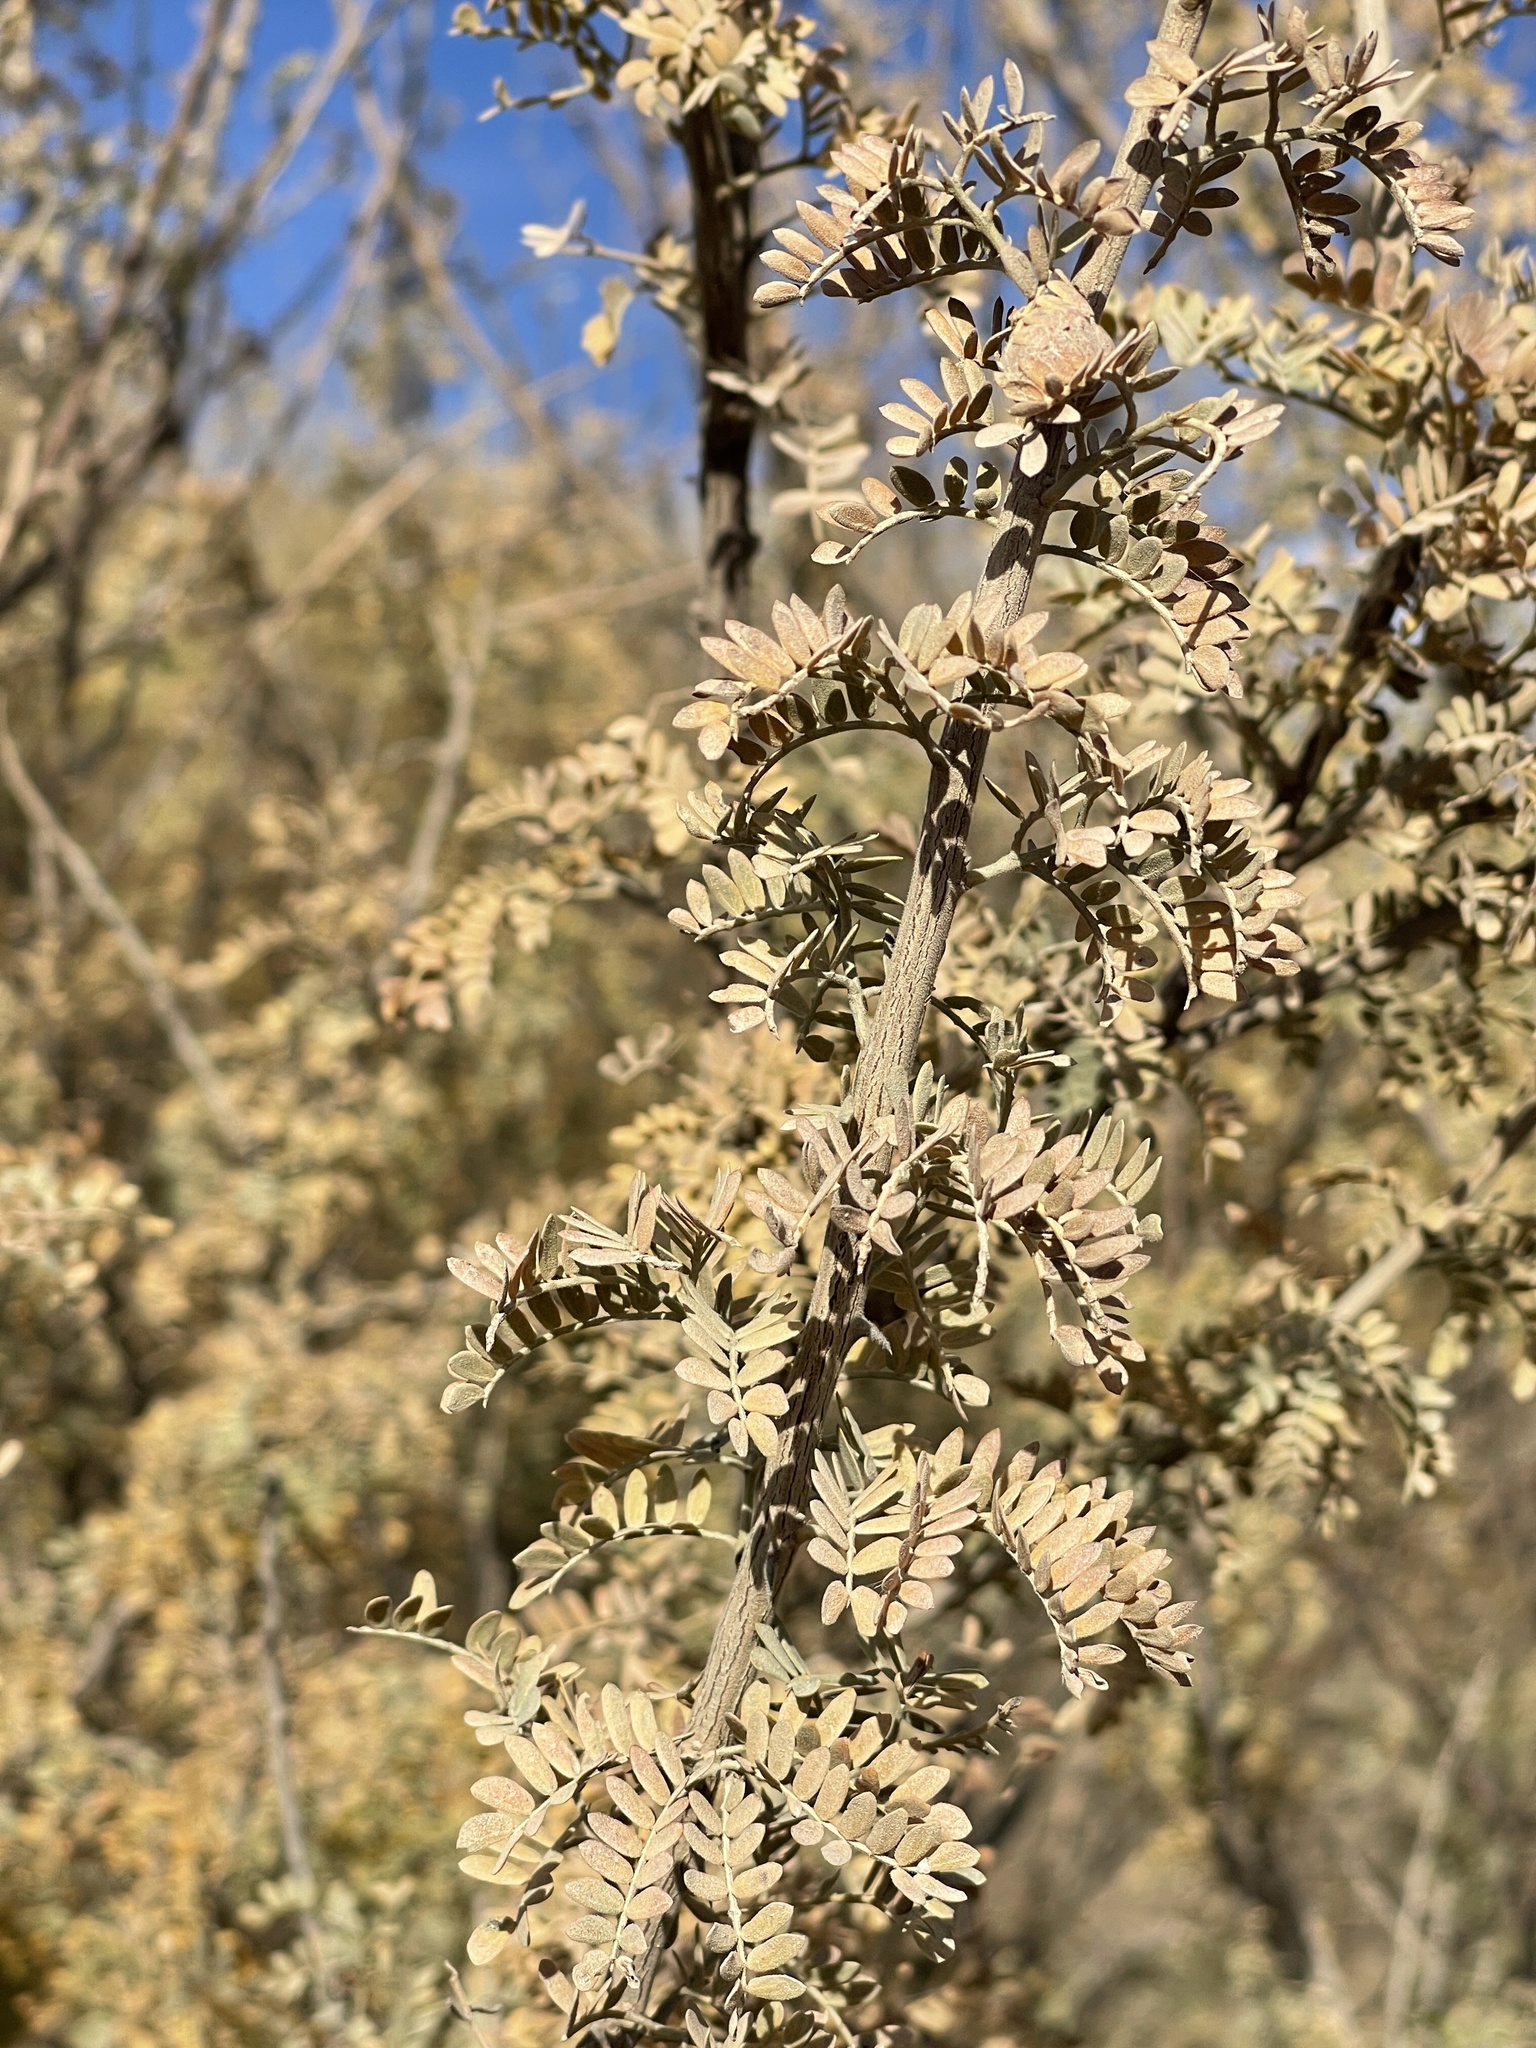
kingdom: Plantae
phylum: Tracheophyta
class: Magnoliopsida
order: Fabales
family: Fabaceae
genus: Senegalia
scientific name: Senegalia greggii
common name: Texas-mimosa
